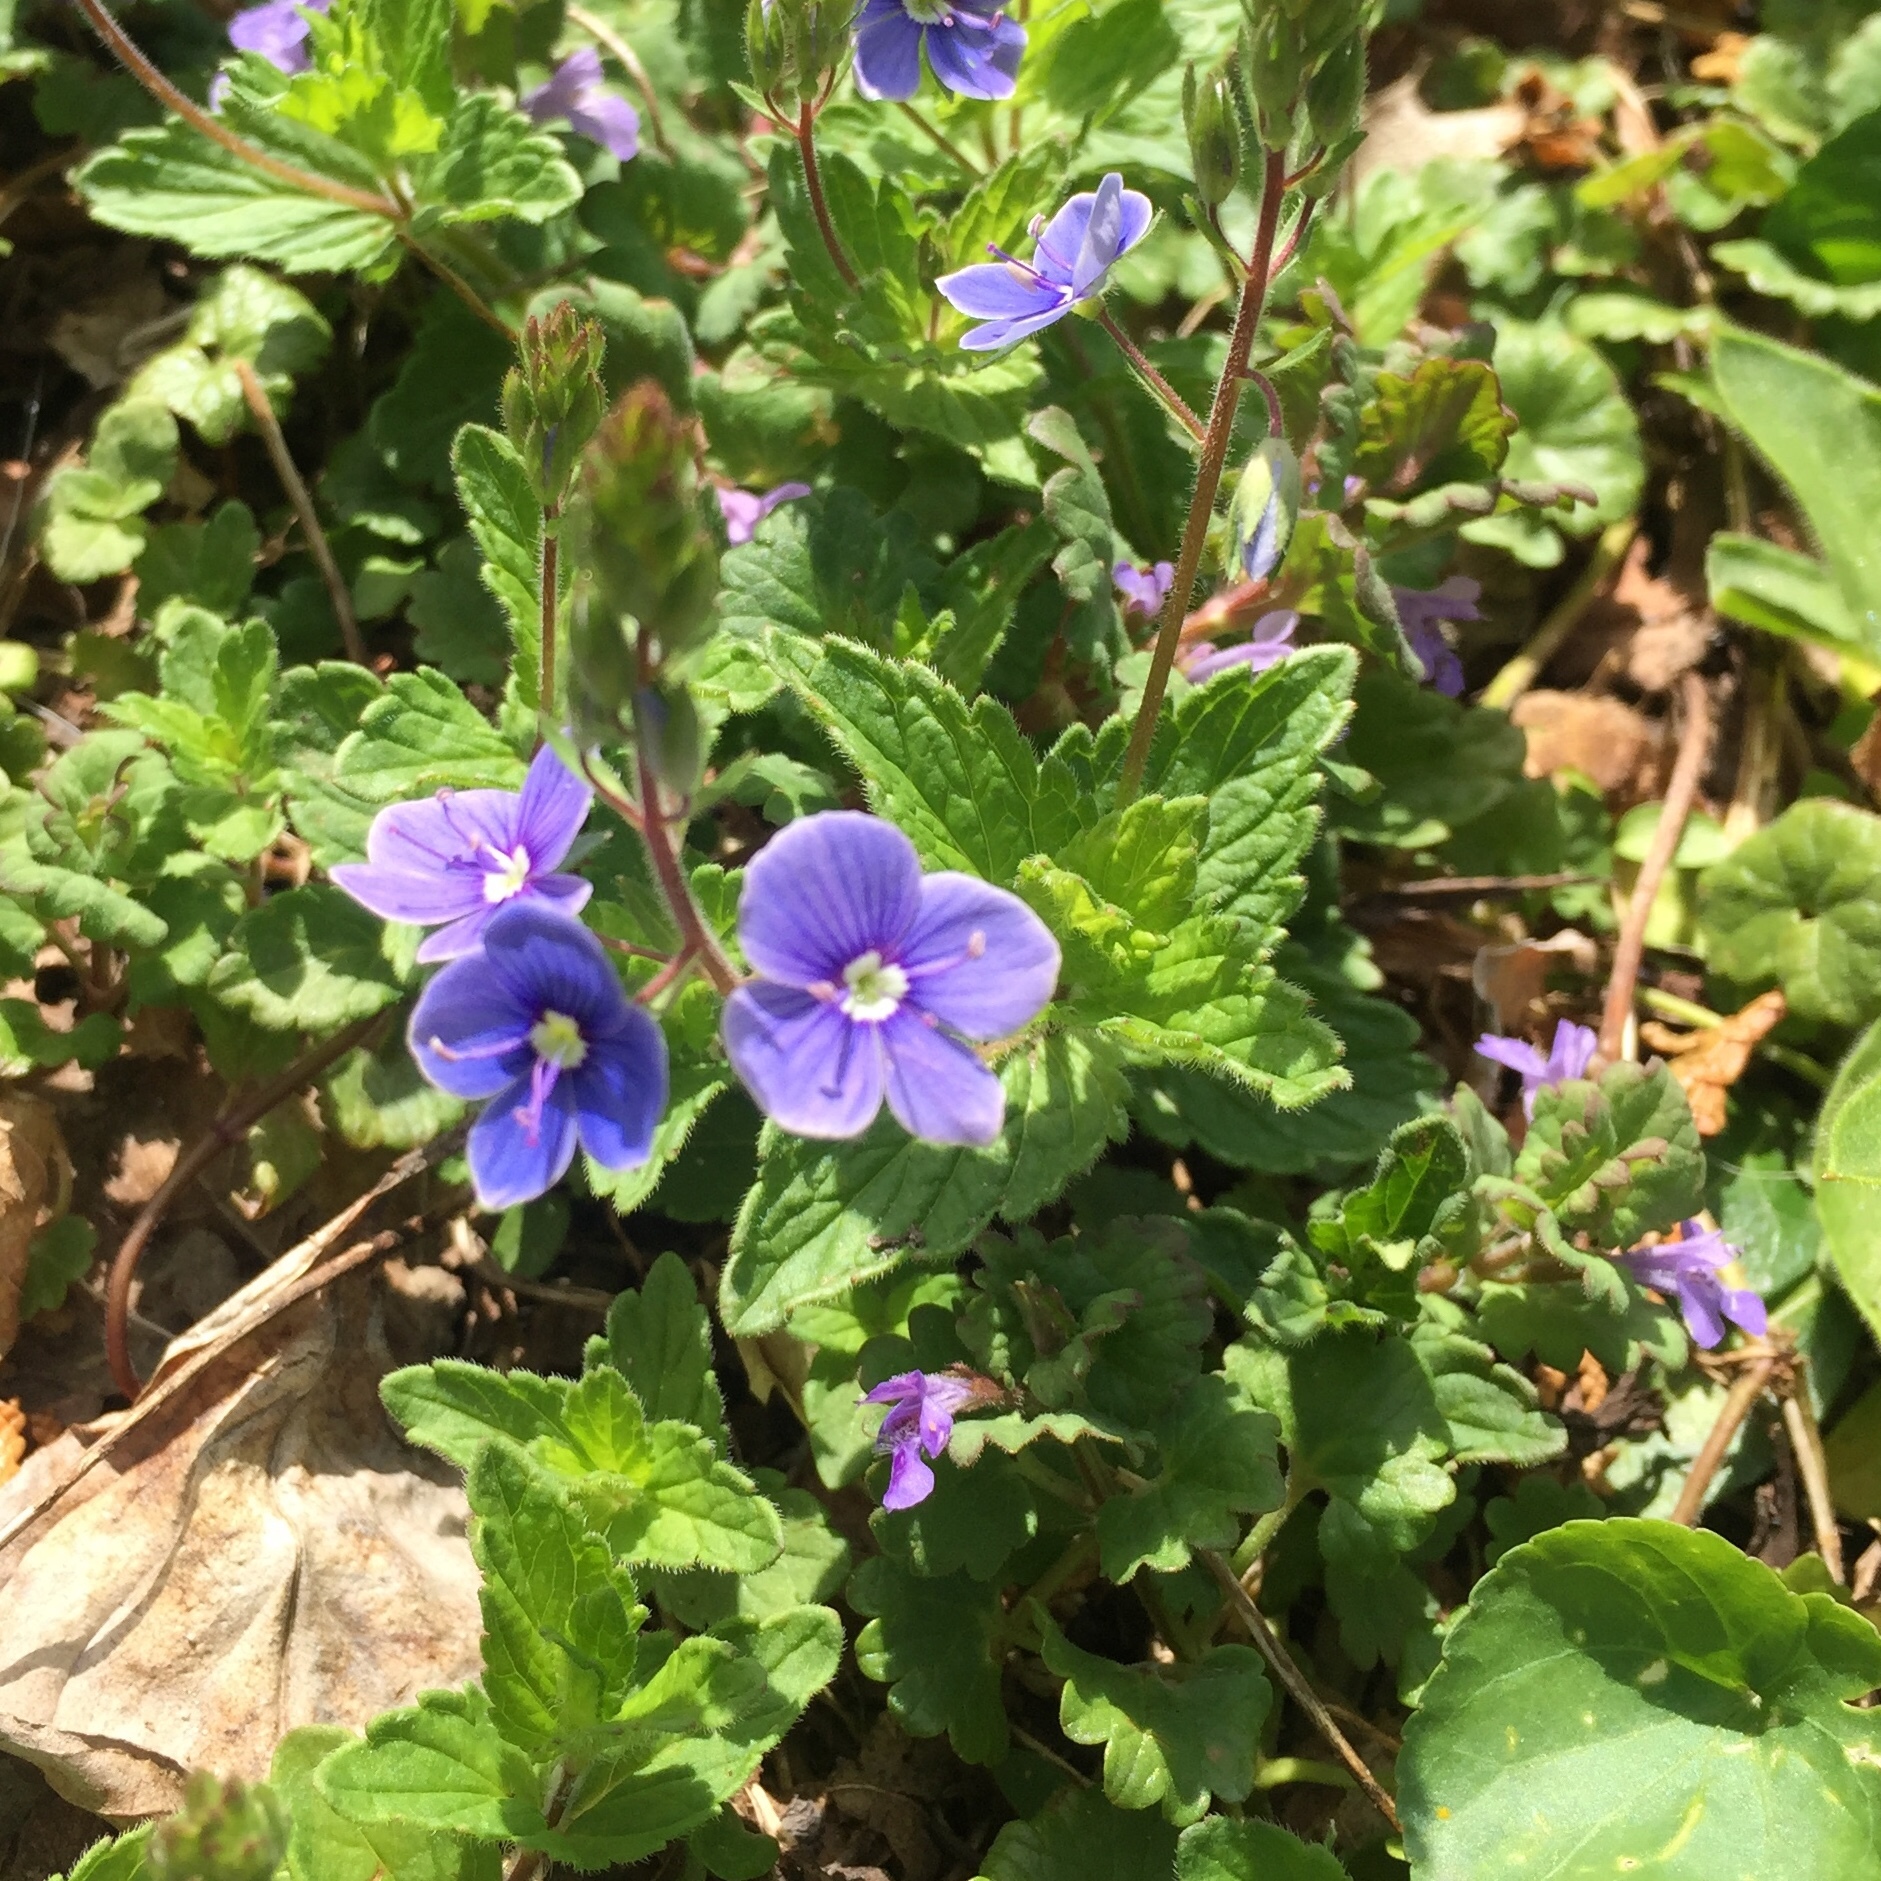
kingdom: Plantae
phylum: Tracheophyta
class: Magnoliopsida
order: Lamiales
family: Plantaginaceae
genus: Veronica
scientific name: Veronica chamaedrys
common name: Germander speedwell
